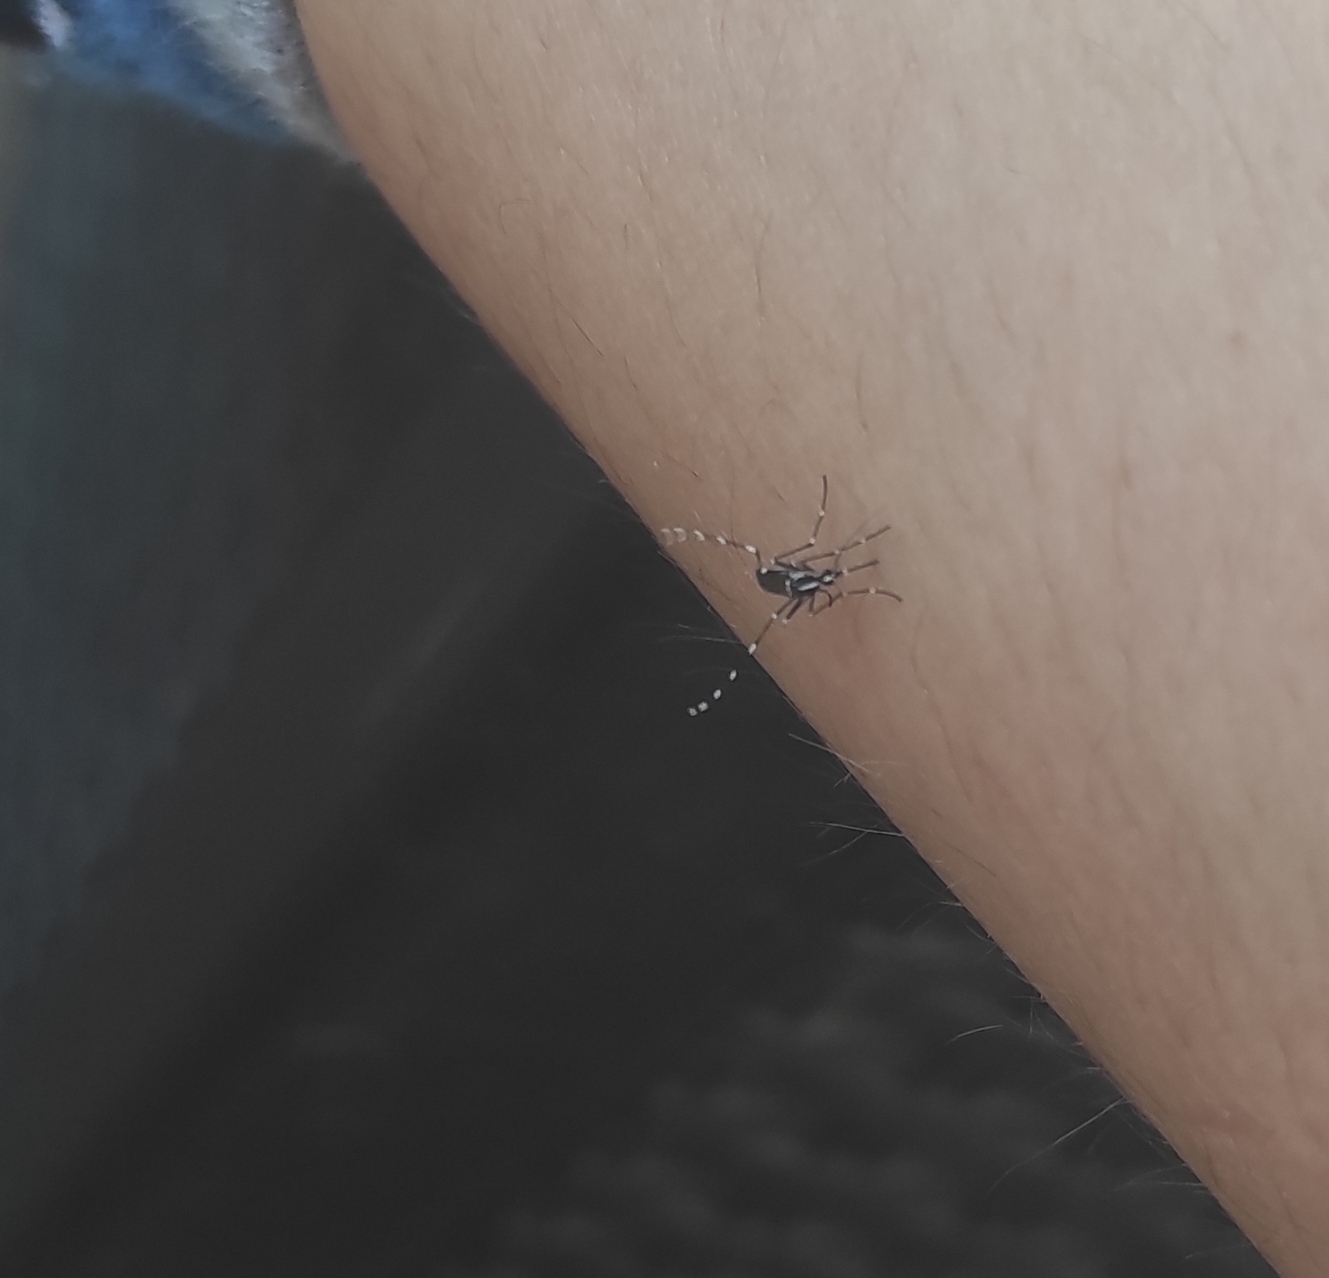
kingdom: Animalia
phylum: Arthropoda
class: Insecta
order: Diptera
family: Culicidae
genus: Aedes
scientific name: Aedes albopictus
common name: Tiger mosquito
